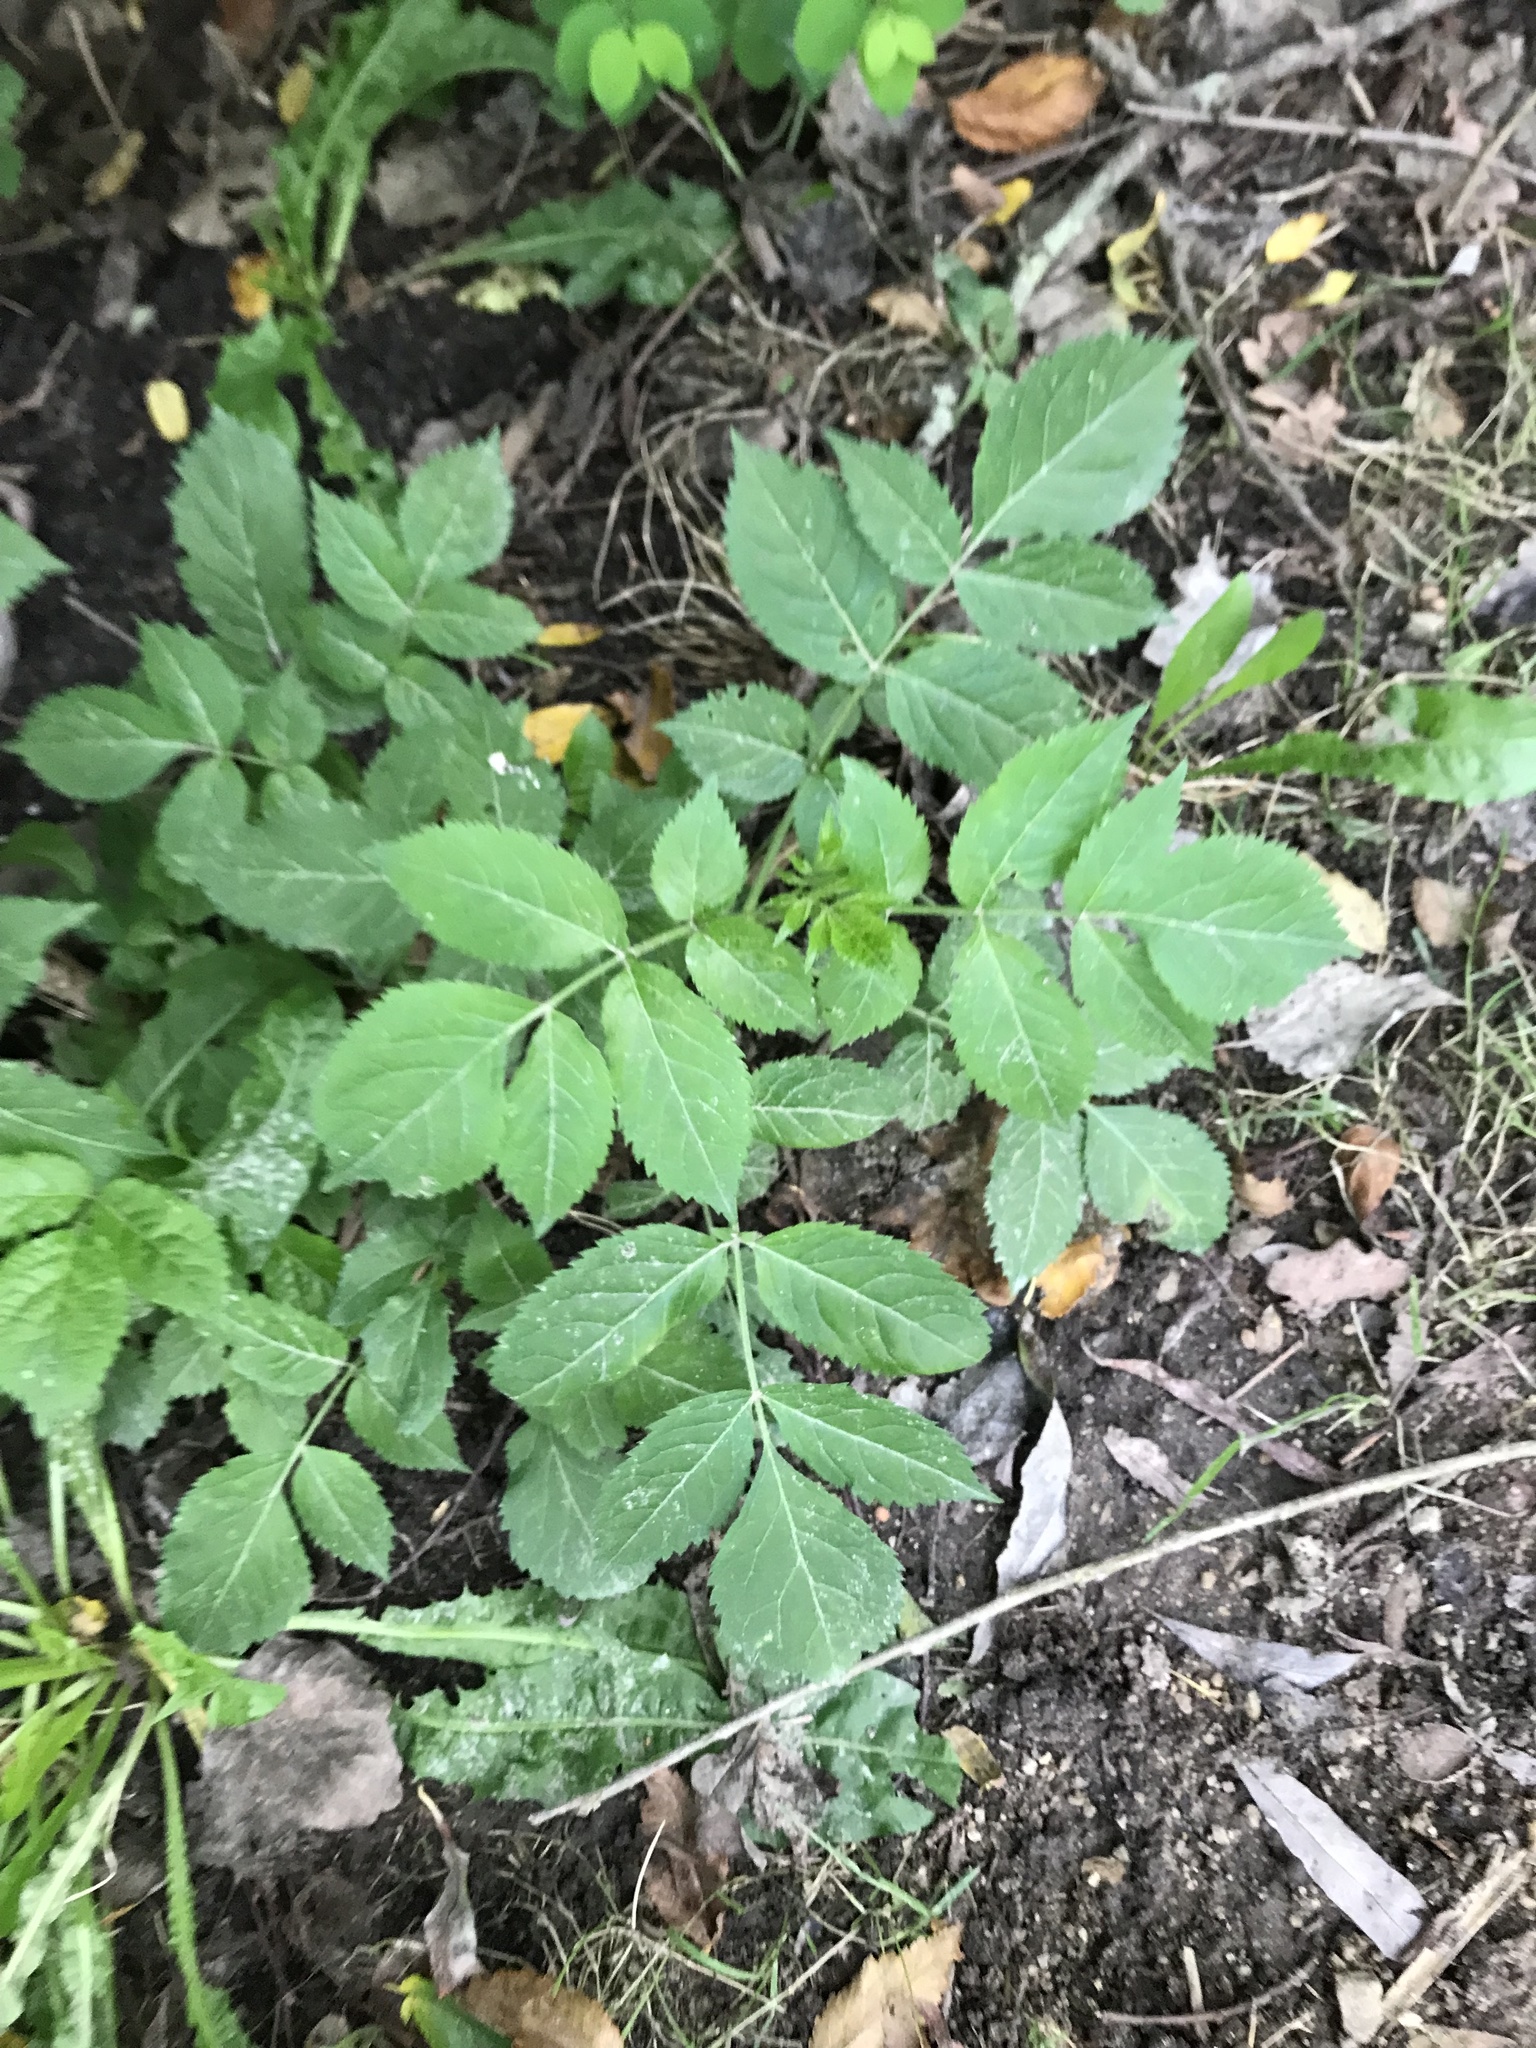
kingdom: Plantae
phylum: Tracheophyta
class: Magnoliopsida
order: Dipsacales
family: Viburnaceae
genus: Sambucus
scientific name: Sambucus nigra
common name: Elder
